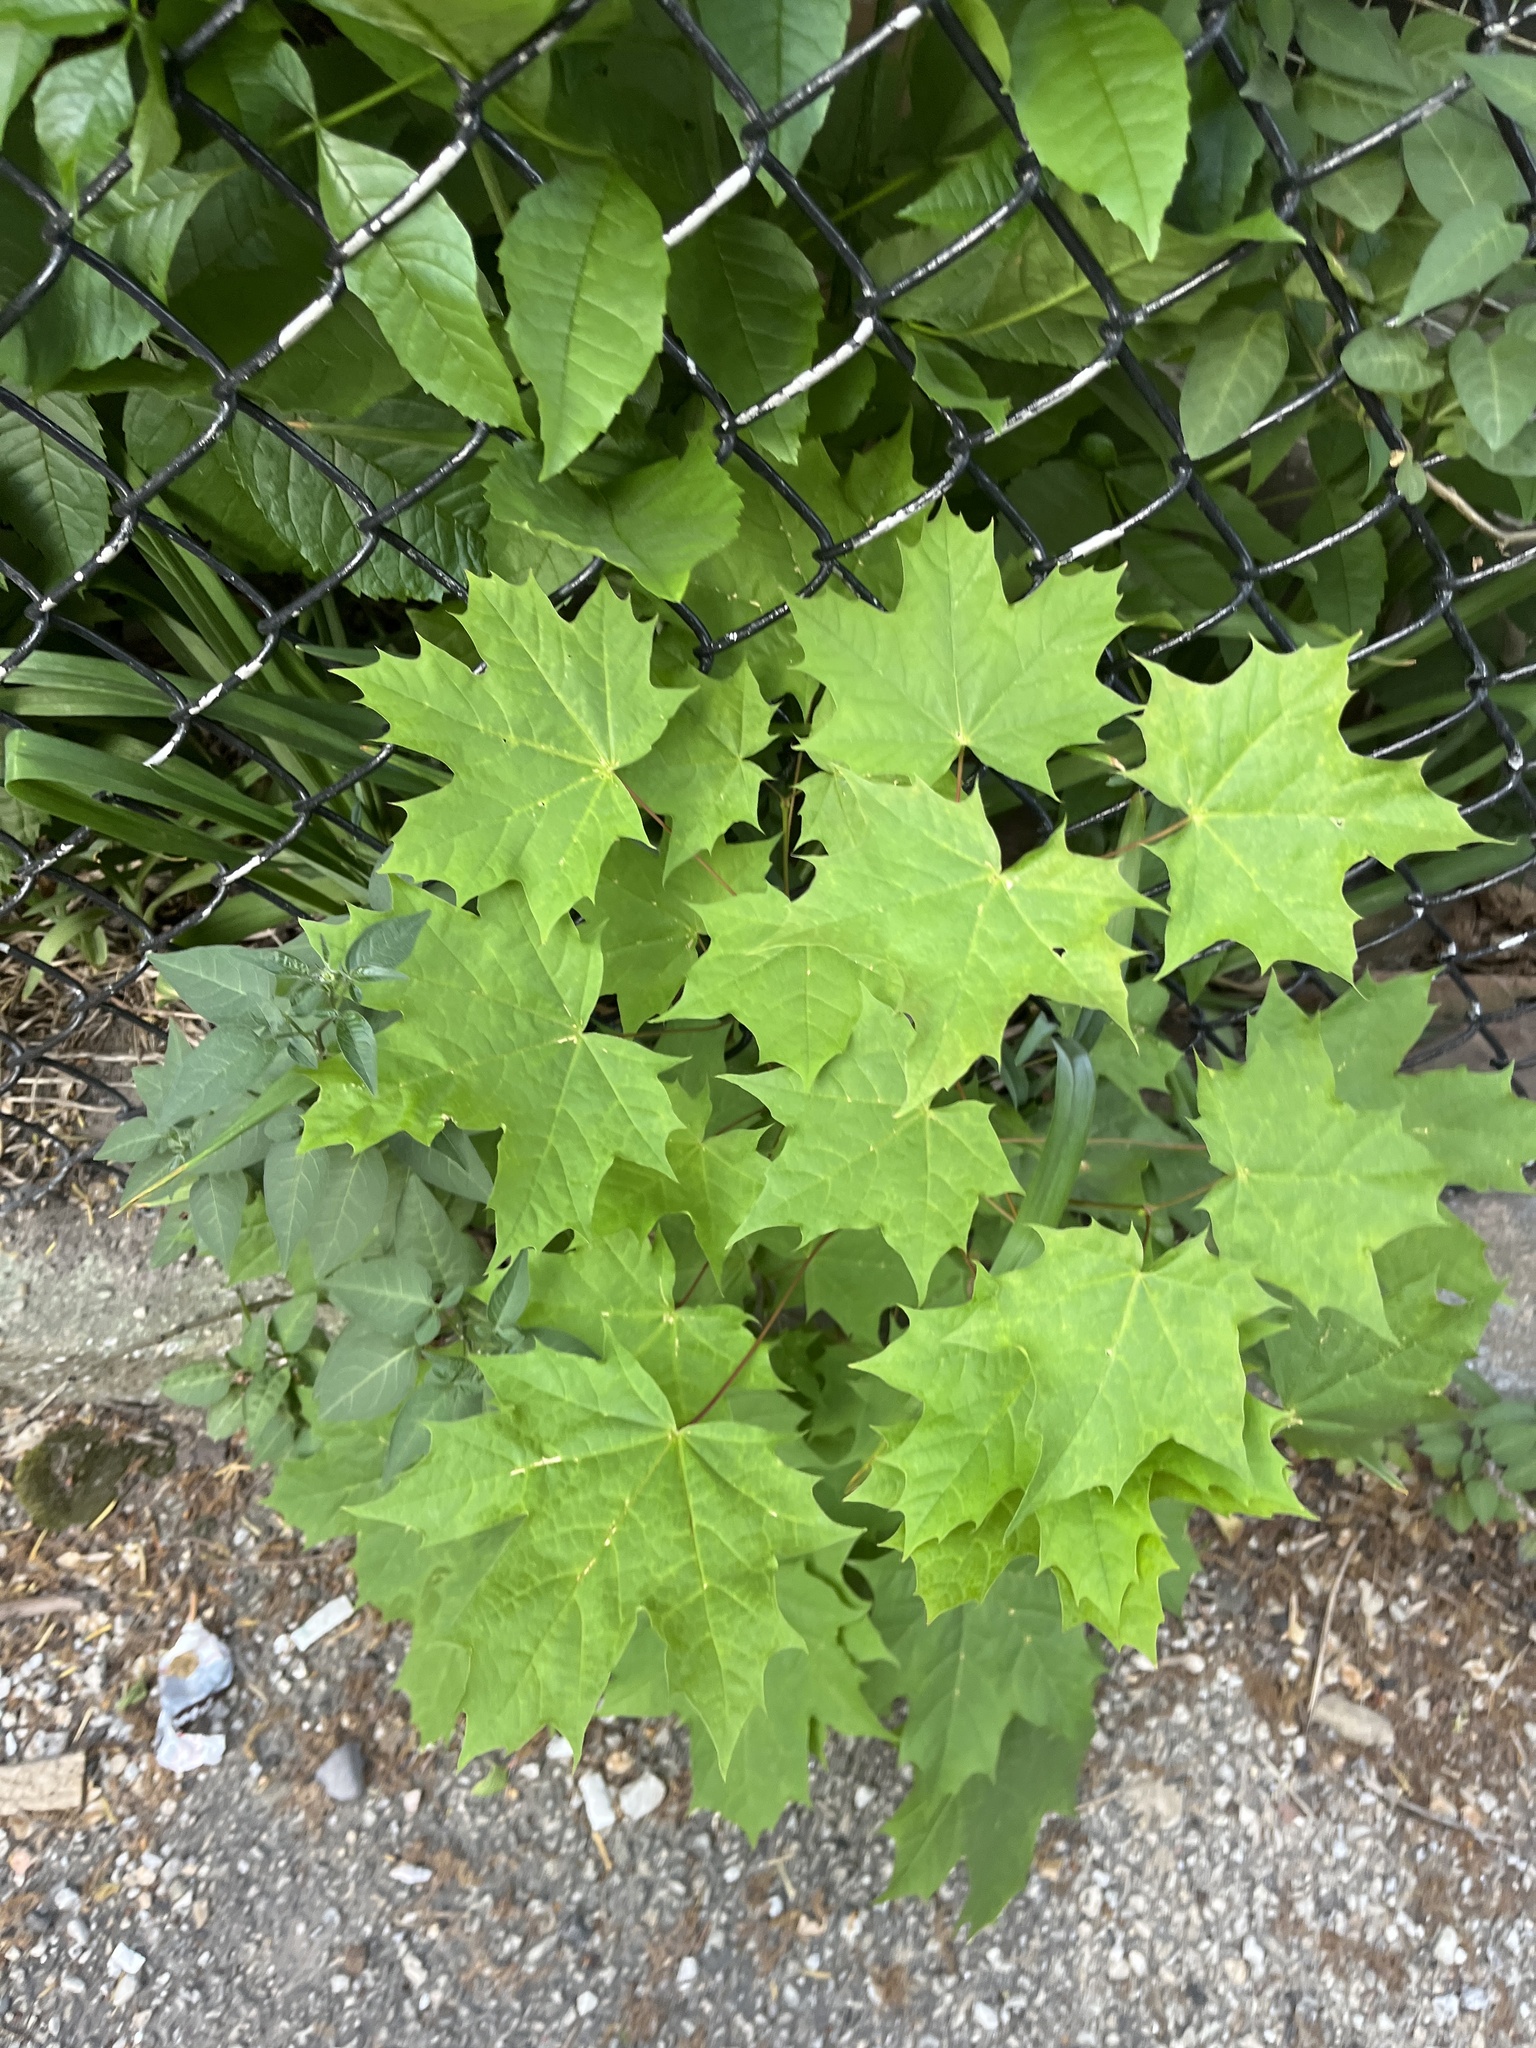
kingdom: Plantae
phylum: Tracheophyta
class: Magnoliopsida
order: Sapindales
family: Sapindaceae
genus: Acer
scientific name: Acer platanoides
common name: Norway maple
